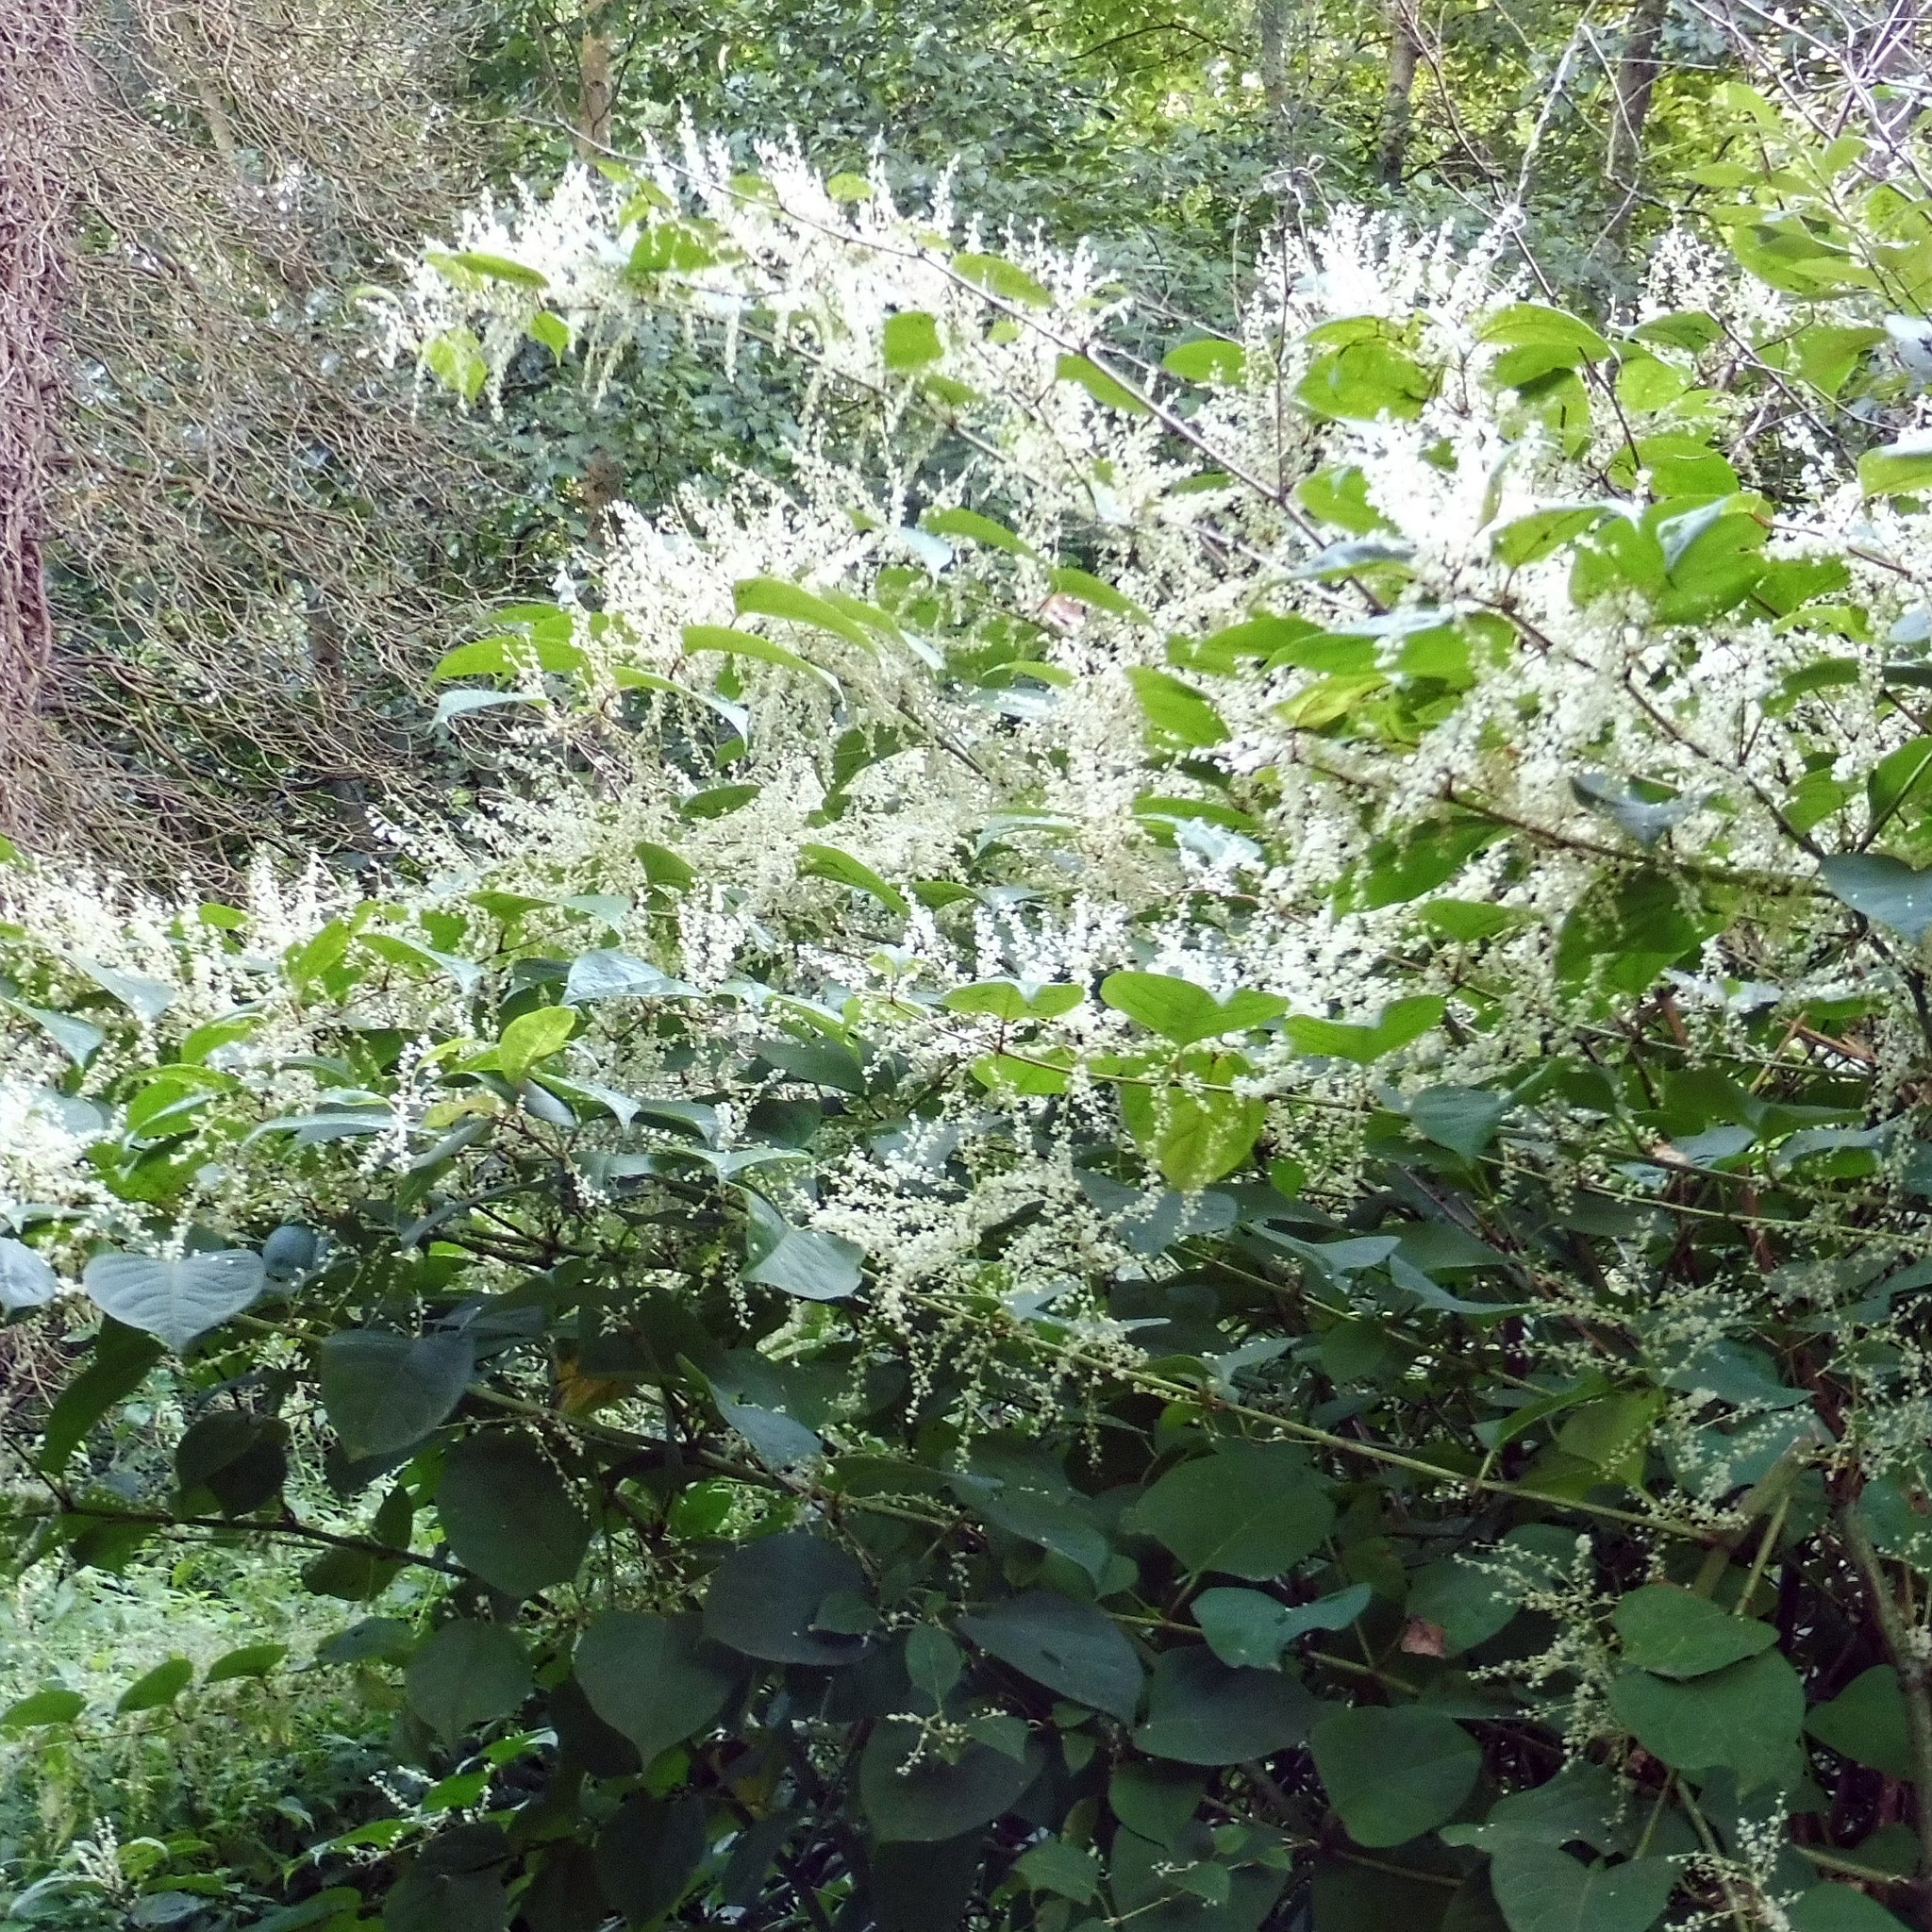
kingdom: Plantae
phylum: Tracheophyta
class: Magnoliopsida
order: Caryophyllales
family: Polygonaceae
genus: Reynoutria
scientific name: Reynoutria japonica
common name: Japanese knotweed
